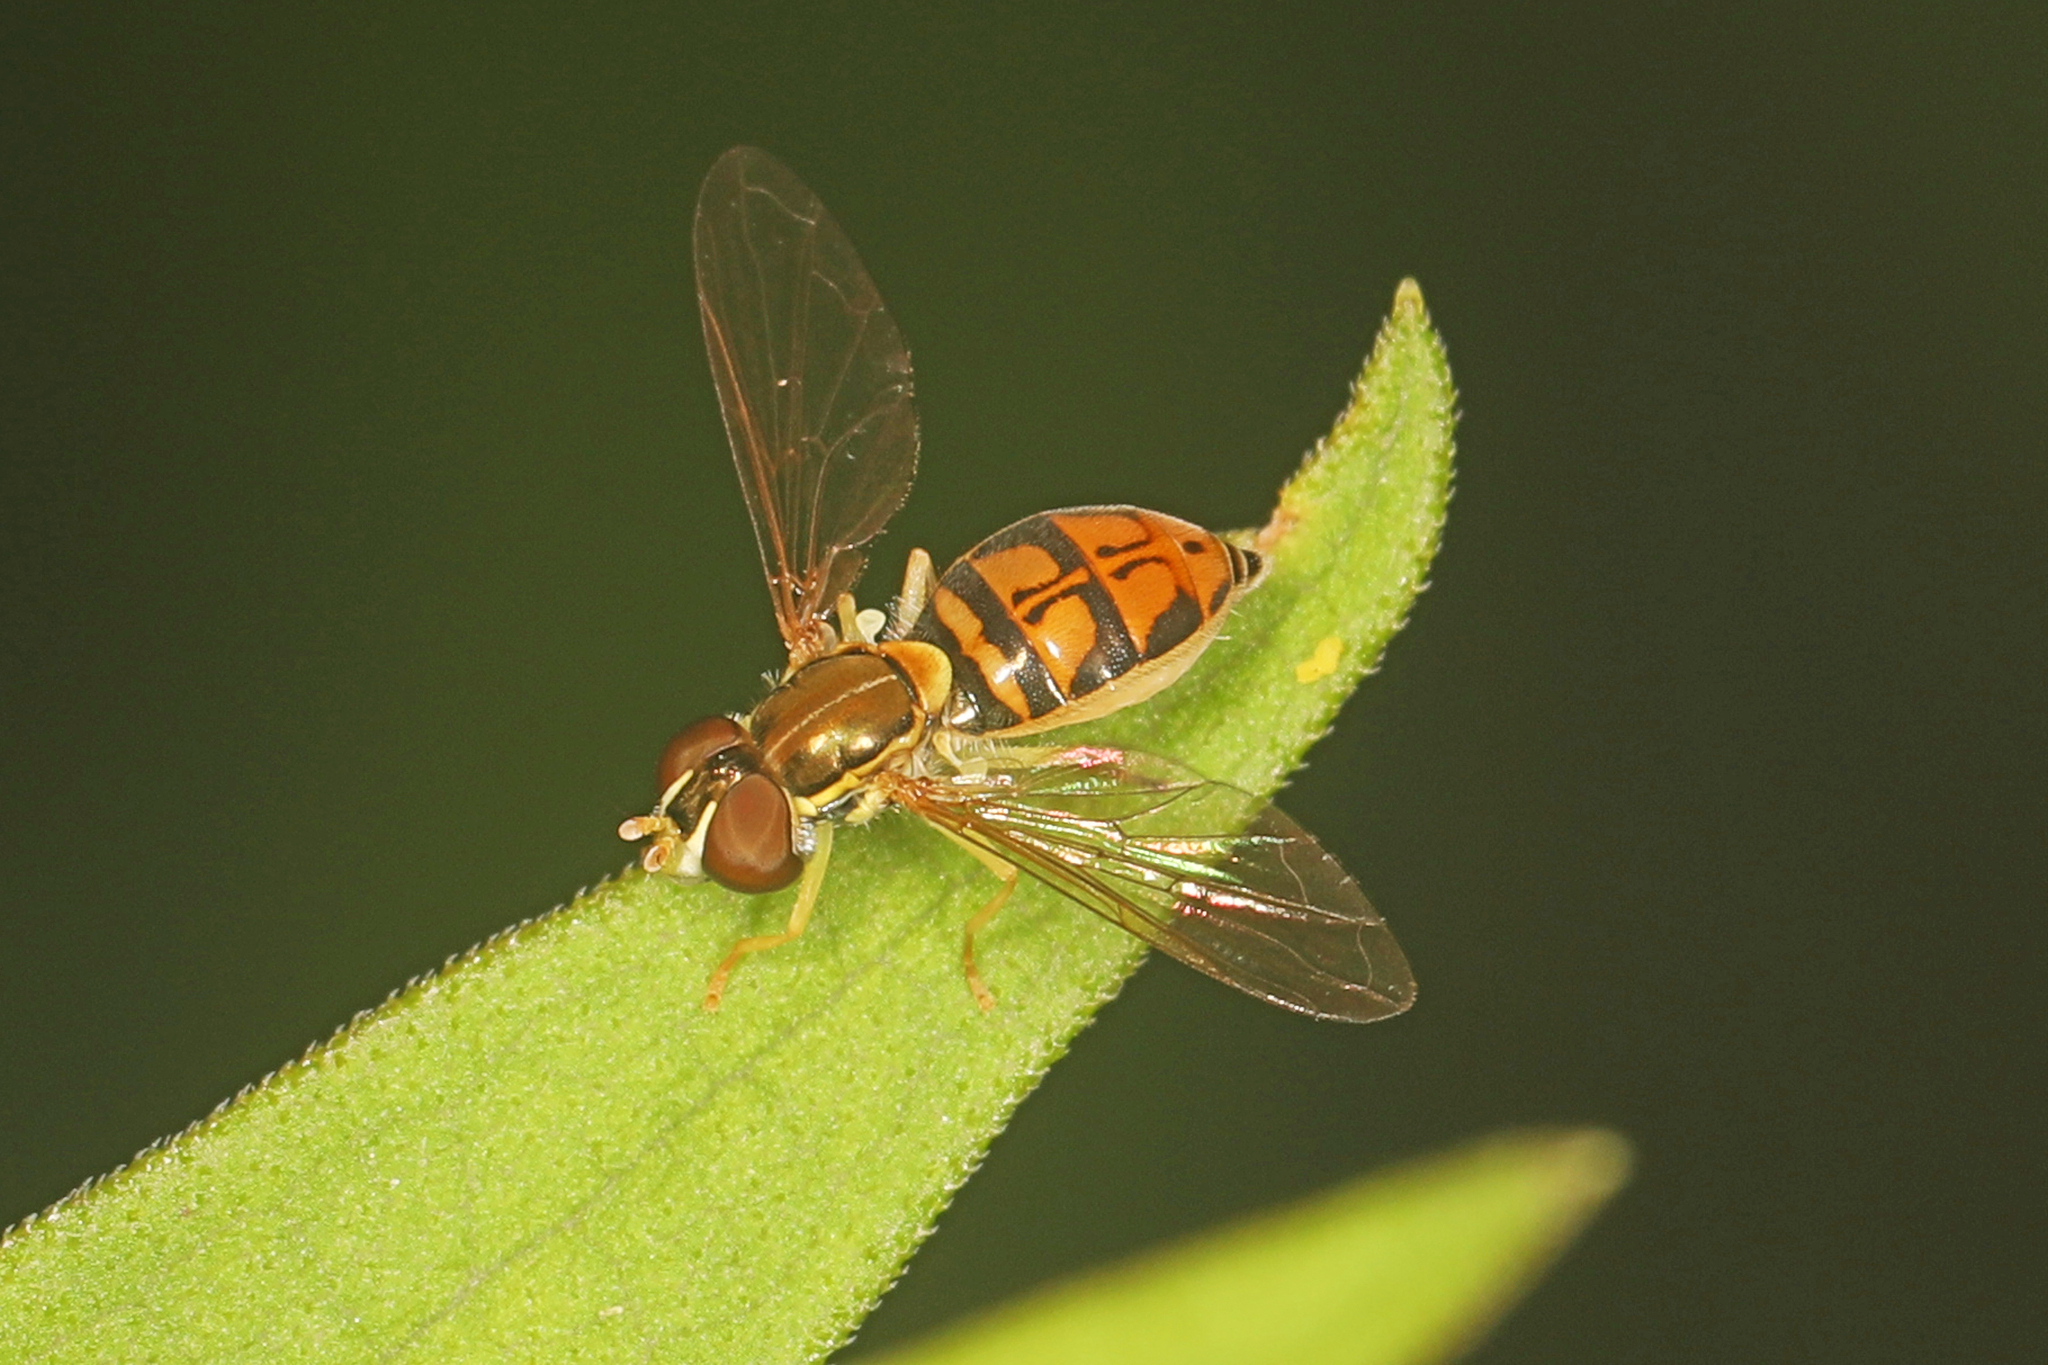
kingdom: Animalia
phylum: Arthropoda
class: Insecta
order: Diptera
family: Syrphidae
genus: Toxomerus
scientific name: Toxomerus marginatus
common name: Syrphid fly
